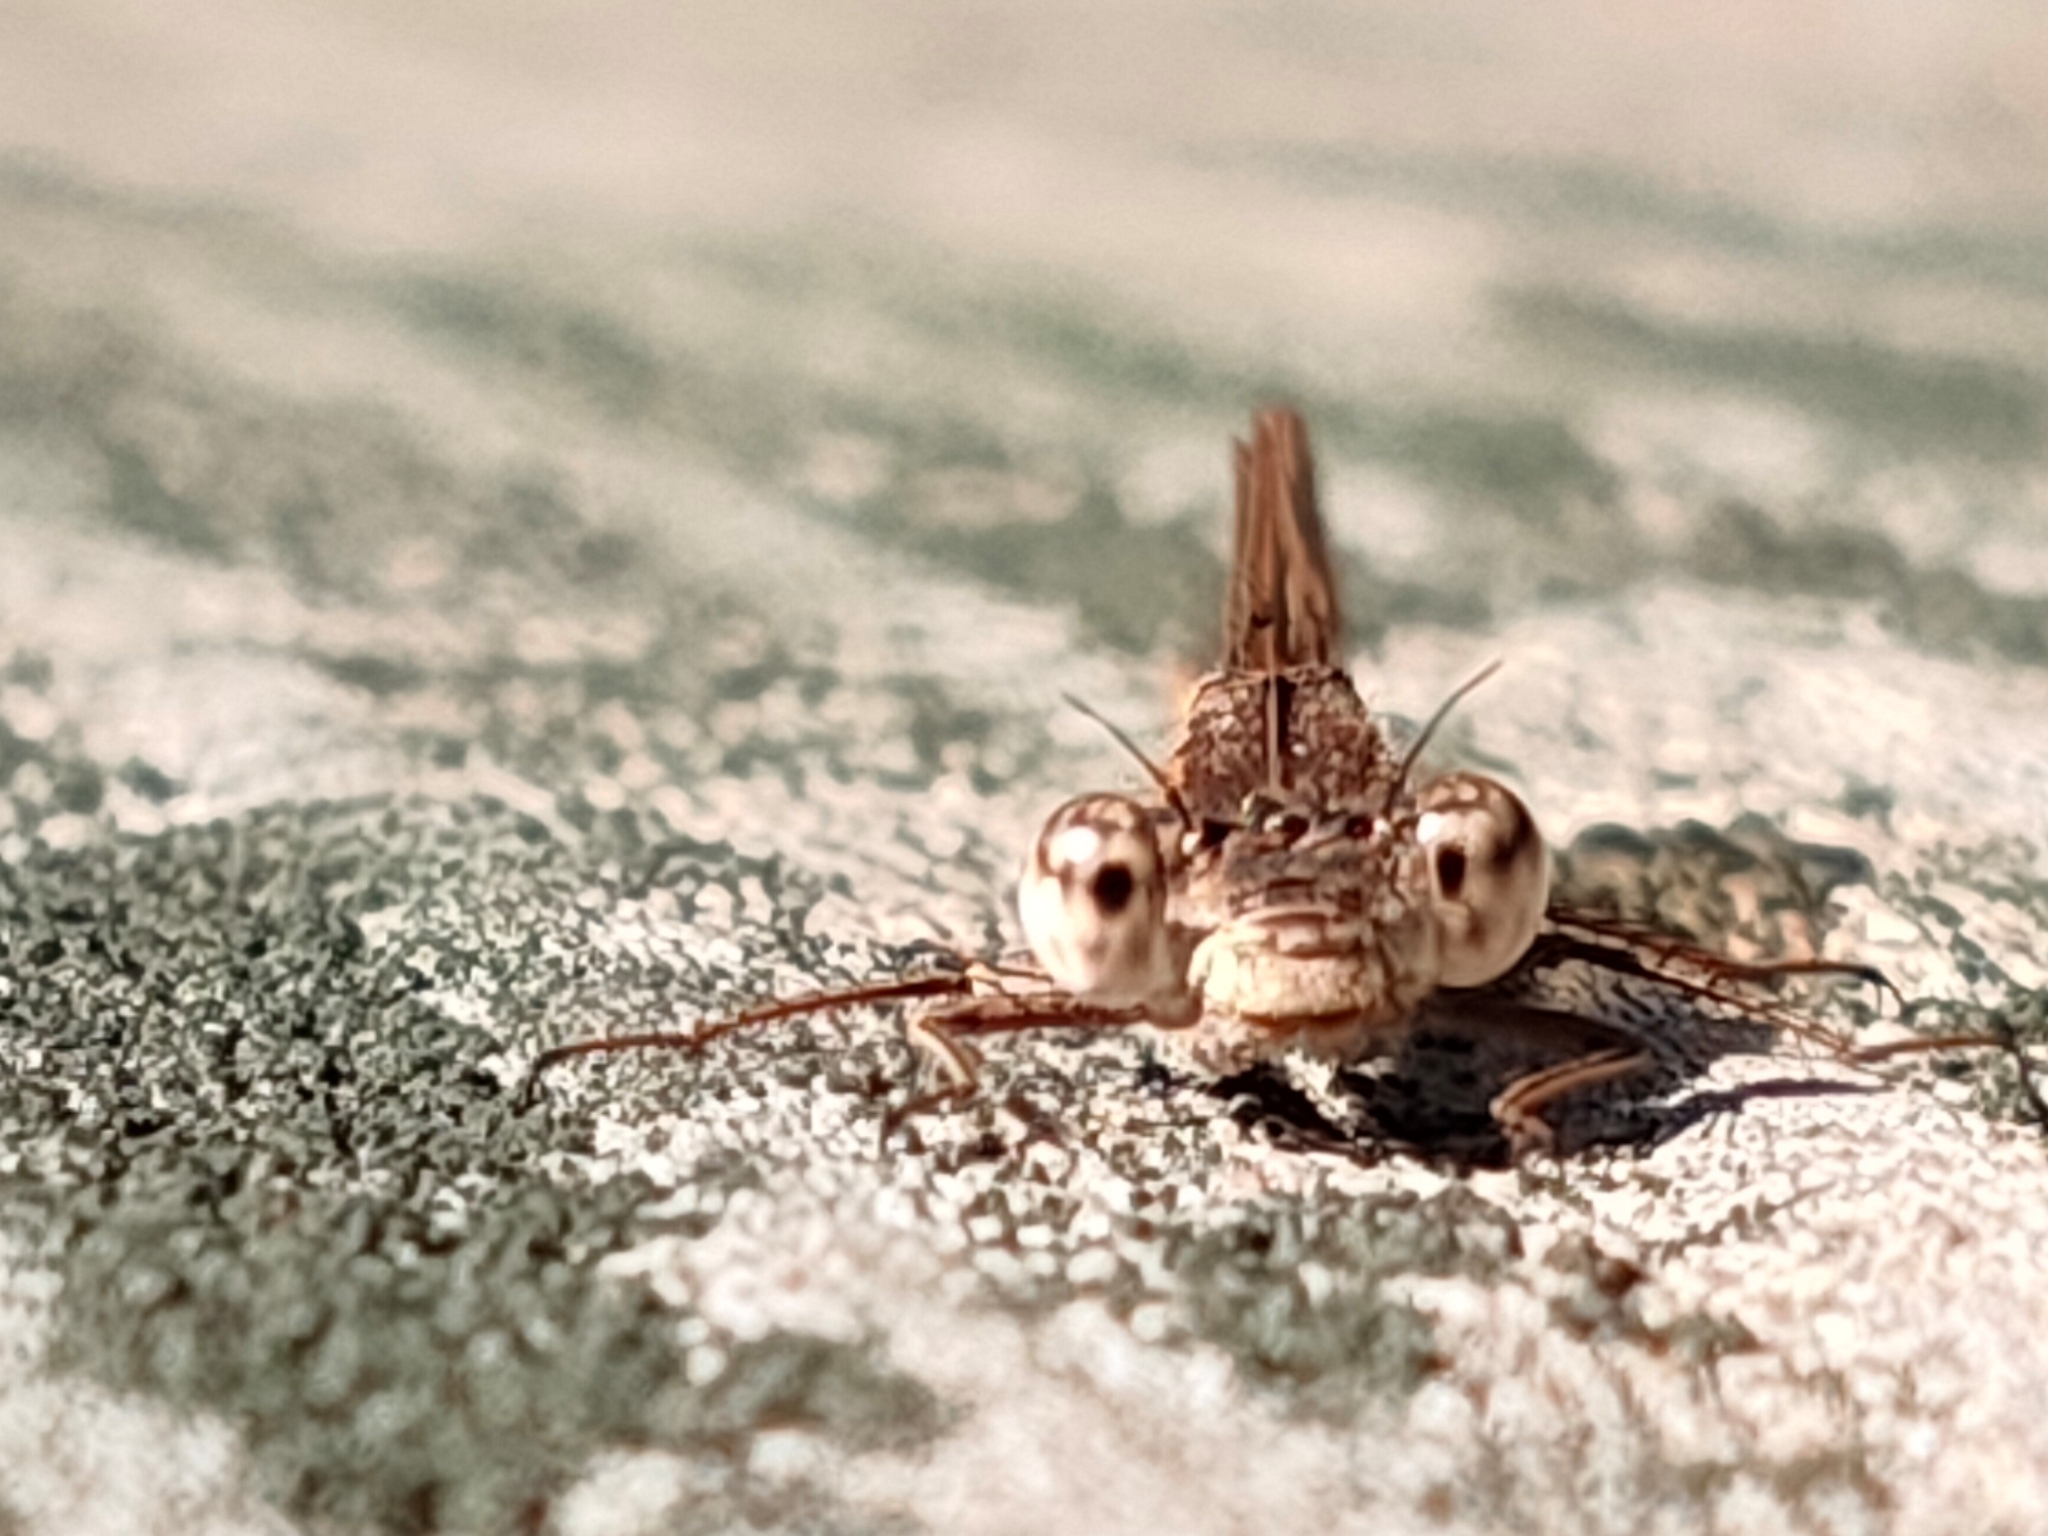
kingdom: Animalia
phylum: Arthropoda
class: Insecta
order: Odonata
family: Lestidae
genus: Sympecma
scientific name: Sympecma paedisca
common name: Siberian winter damsel
